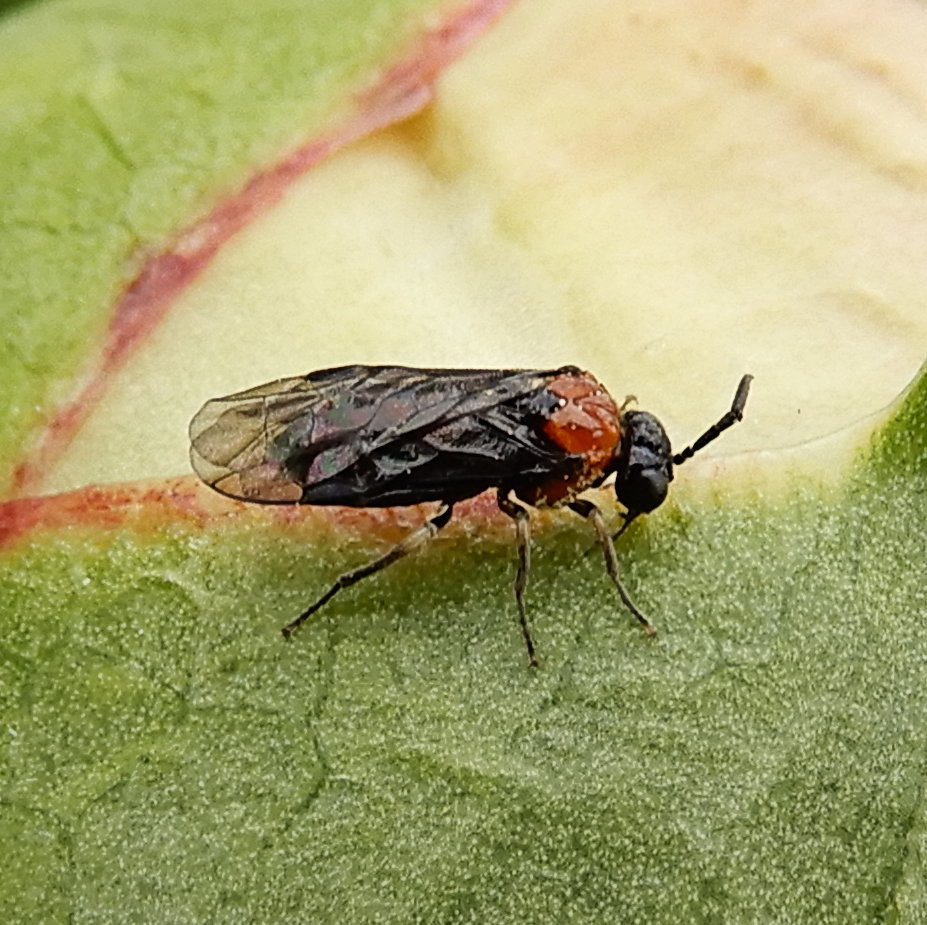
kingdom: Animalia
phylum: Arthropoda
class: Insecta
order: Hymenoptera
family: Tenthredinidae
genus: Eutomostethus
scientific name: Eutomostethus ephippium
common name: Tenthredid wasp
